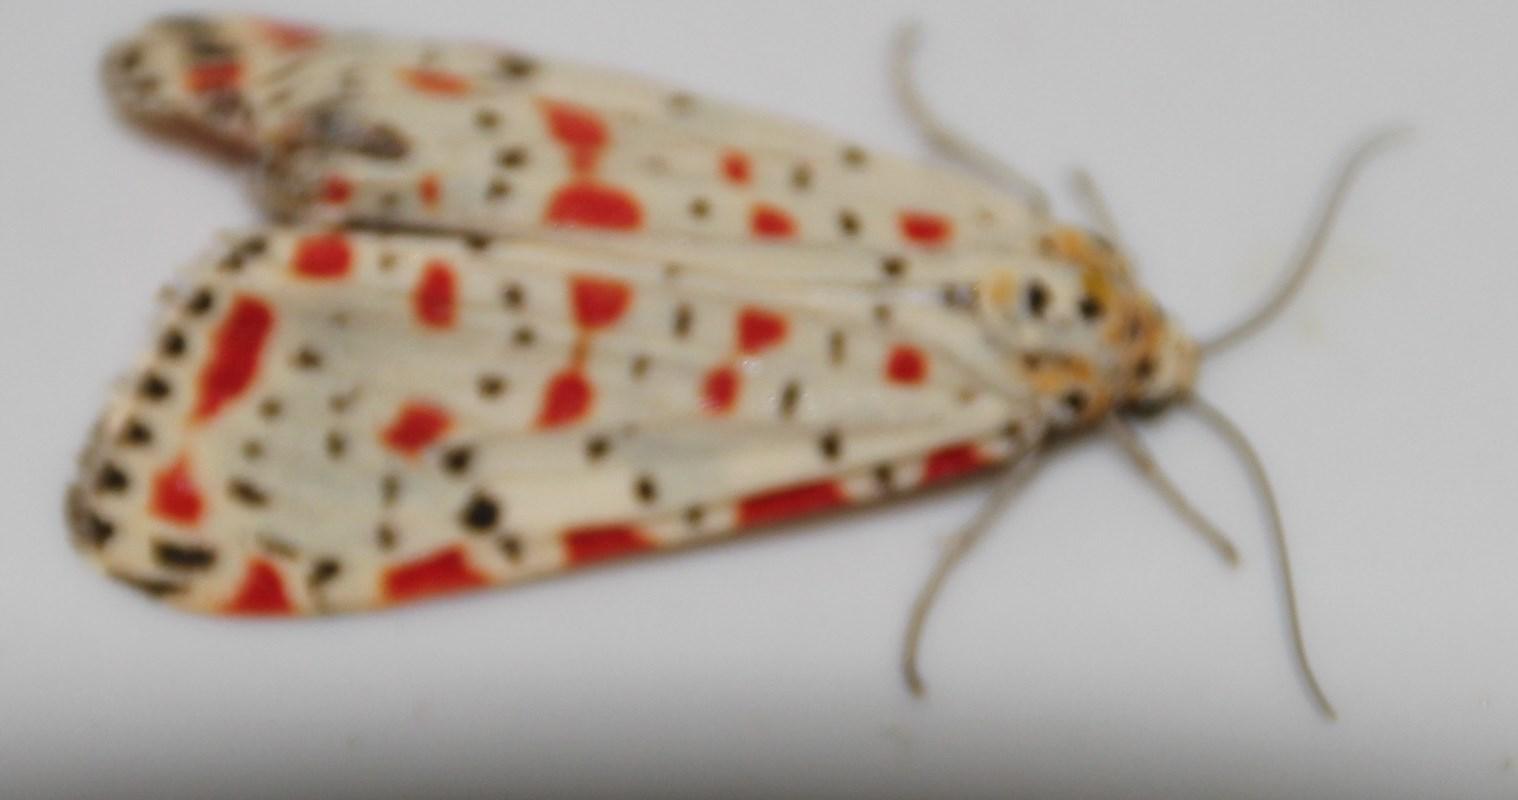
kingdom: Animalia
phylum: Arthropoda
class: Insecta
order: Lepidoptera
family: Erebidae
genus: Utetheisa
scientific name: Utetheisa pulchella
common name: Crimson speckled
